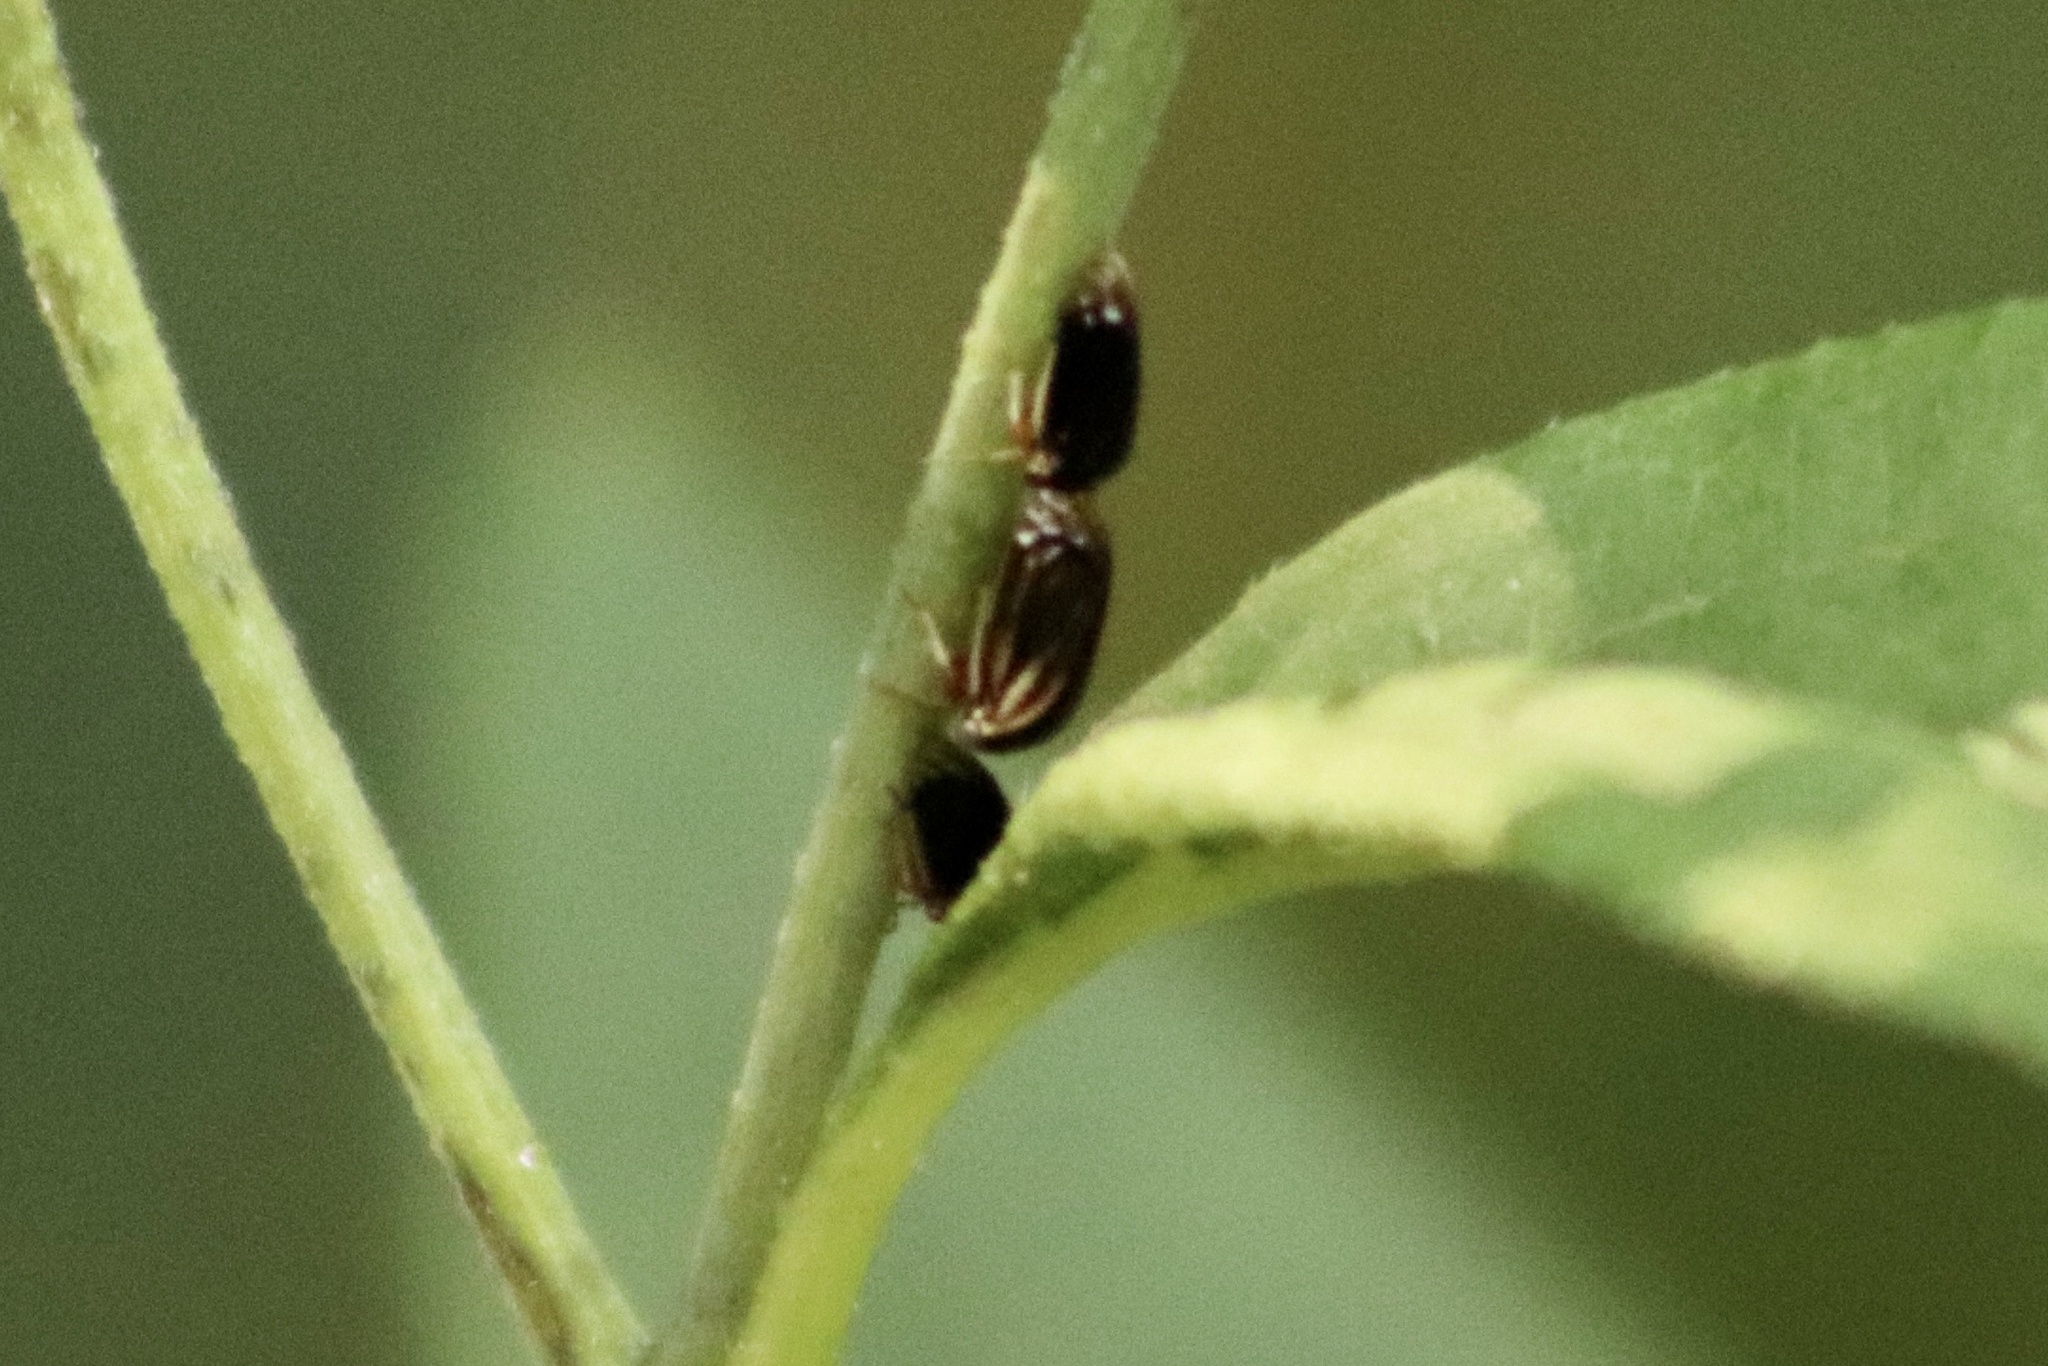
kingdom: Animalia
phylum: Arthropoda
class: Insecta
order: Hemiptera
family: Membracidae
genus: Acutalis
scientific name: Acutalis tartarea
